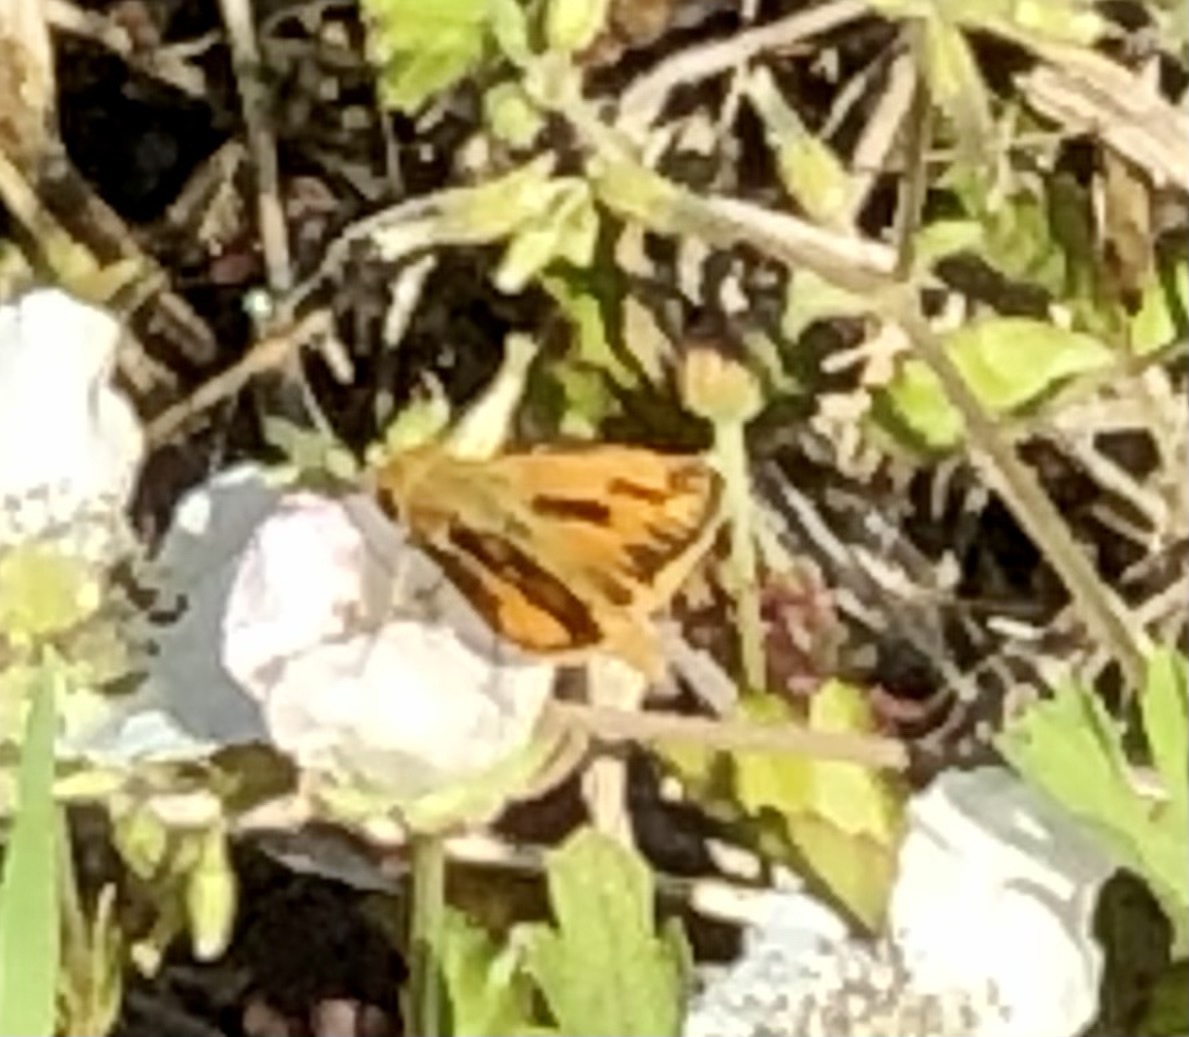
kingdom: Animalia
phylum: Arthropoda
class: Insecta
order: Lepidoptera
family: Hesperiidae
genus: Hylephila
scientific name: Hylephila phyleus
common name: Fiery skipper
